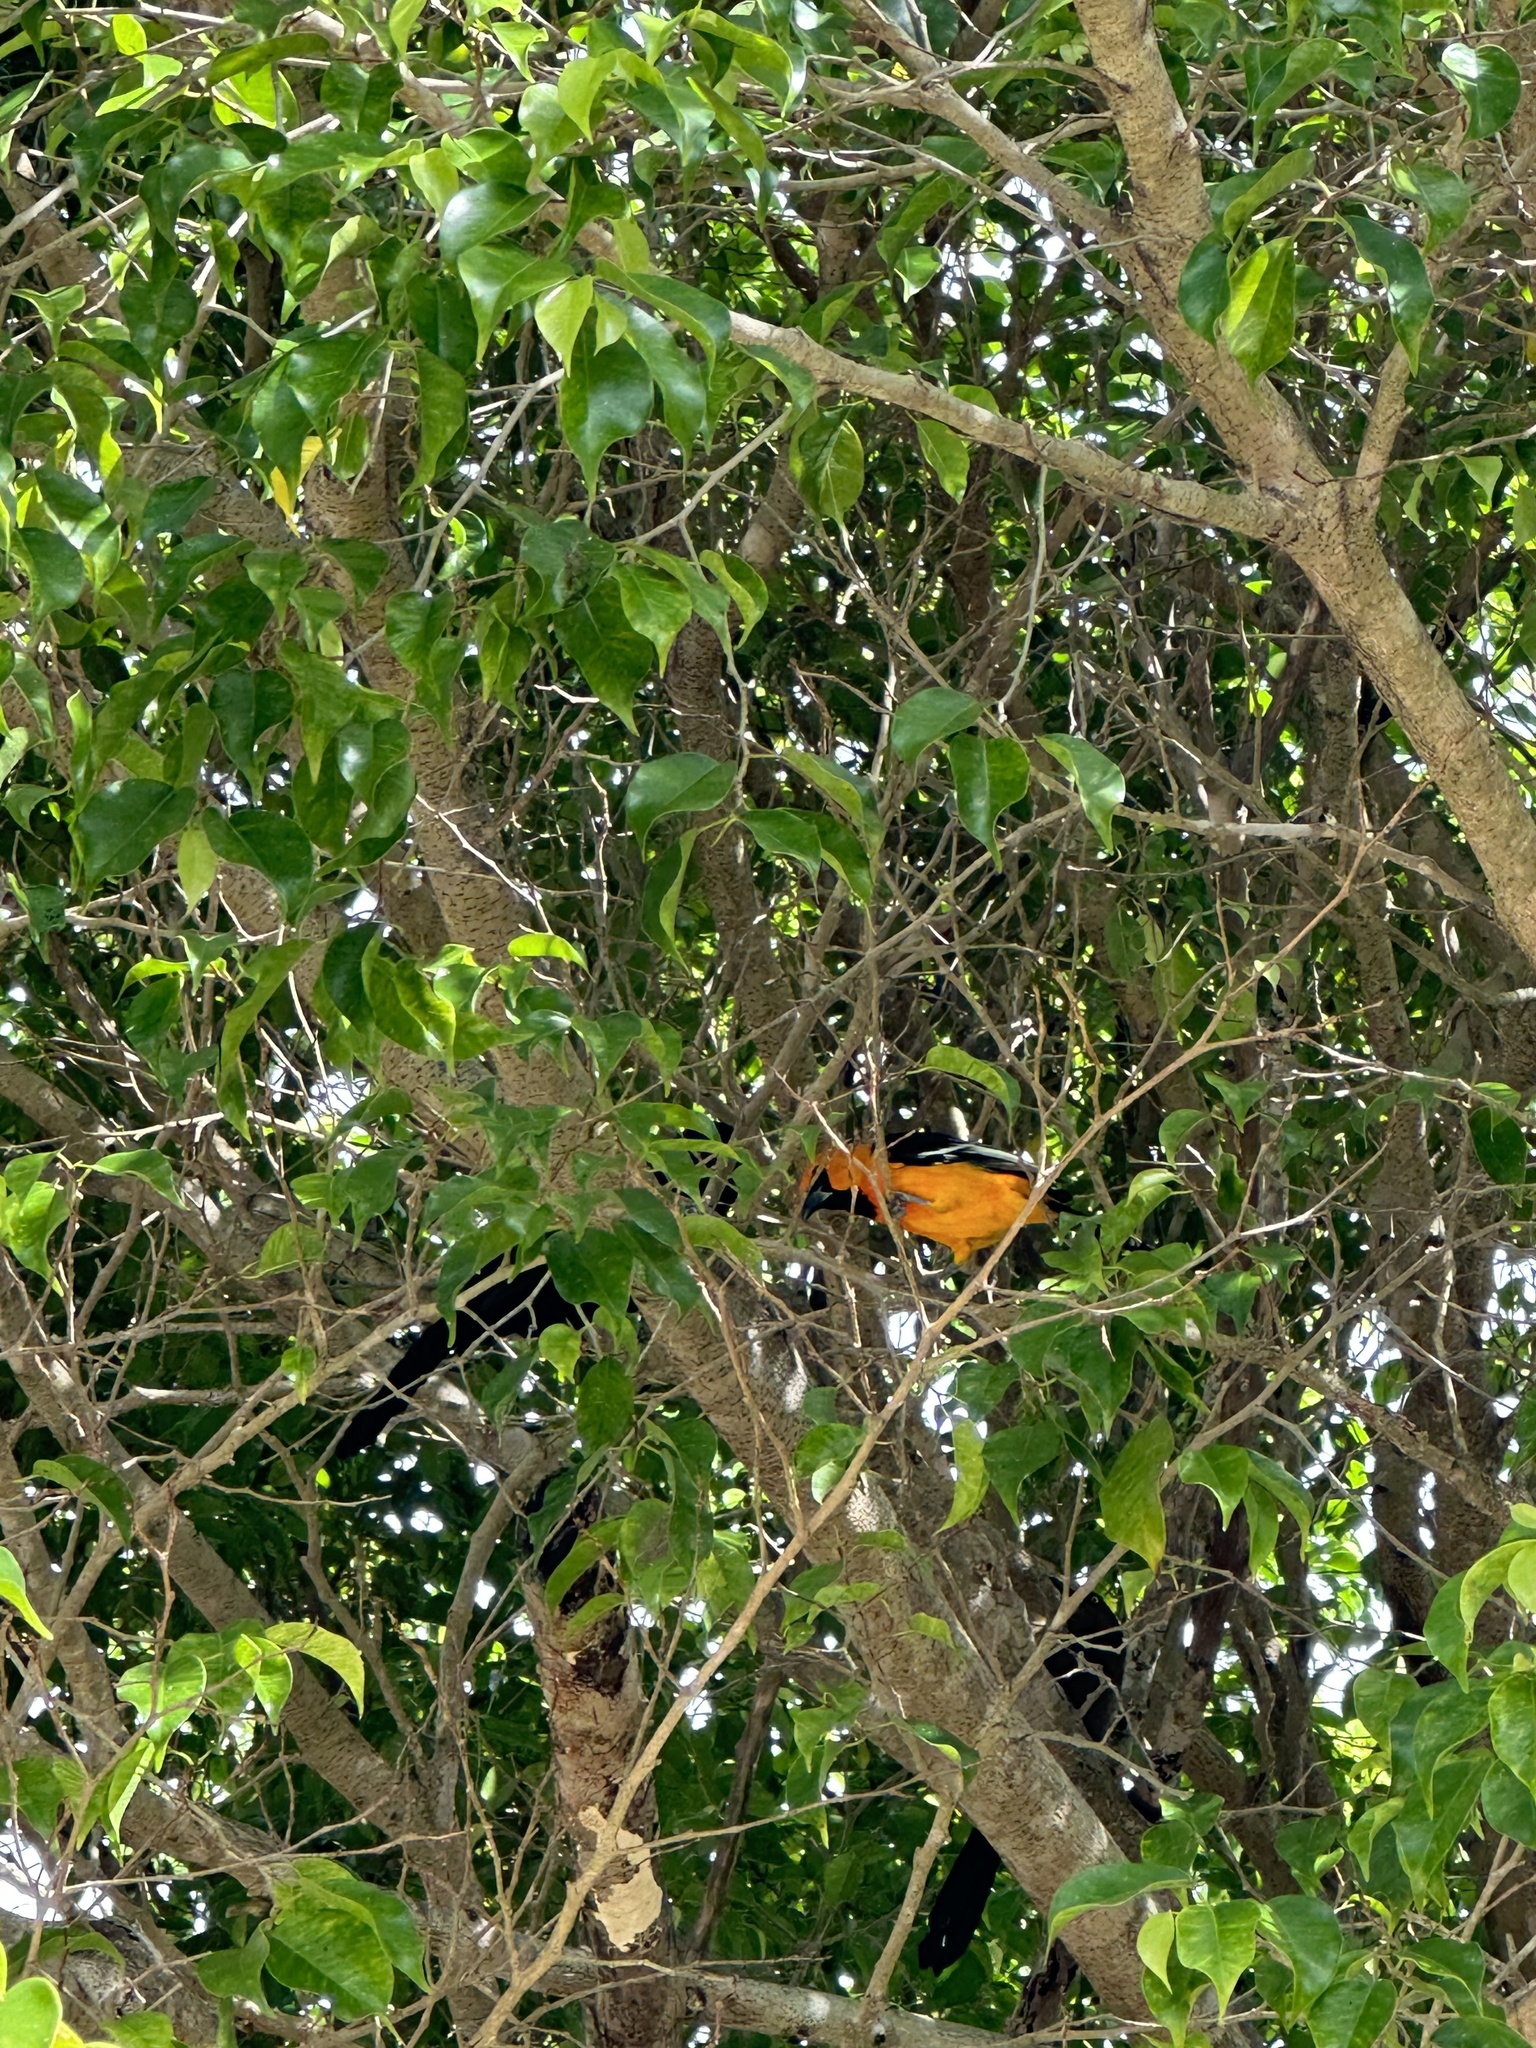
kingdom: Animalia
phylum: Chordata
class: Aves
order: Passeriformes
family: Icteridae
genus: Icterus
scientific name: Icterus cucullatus
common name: Hooded oriole
